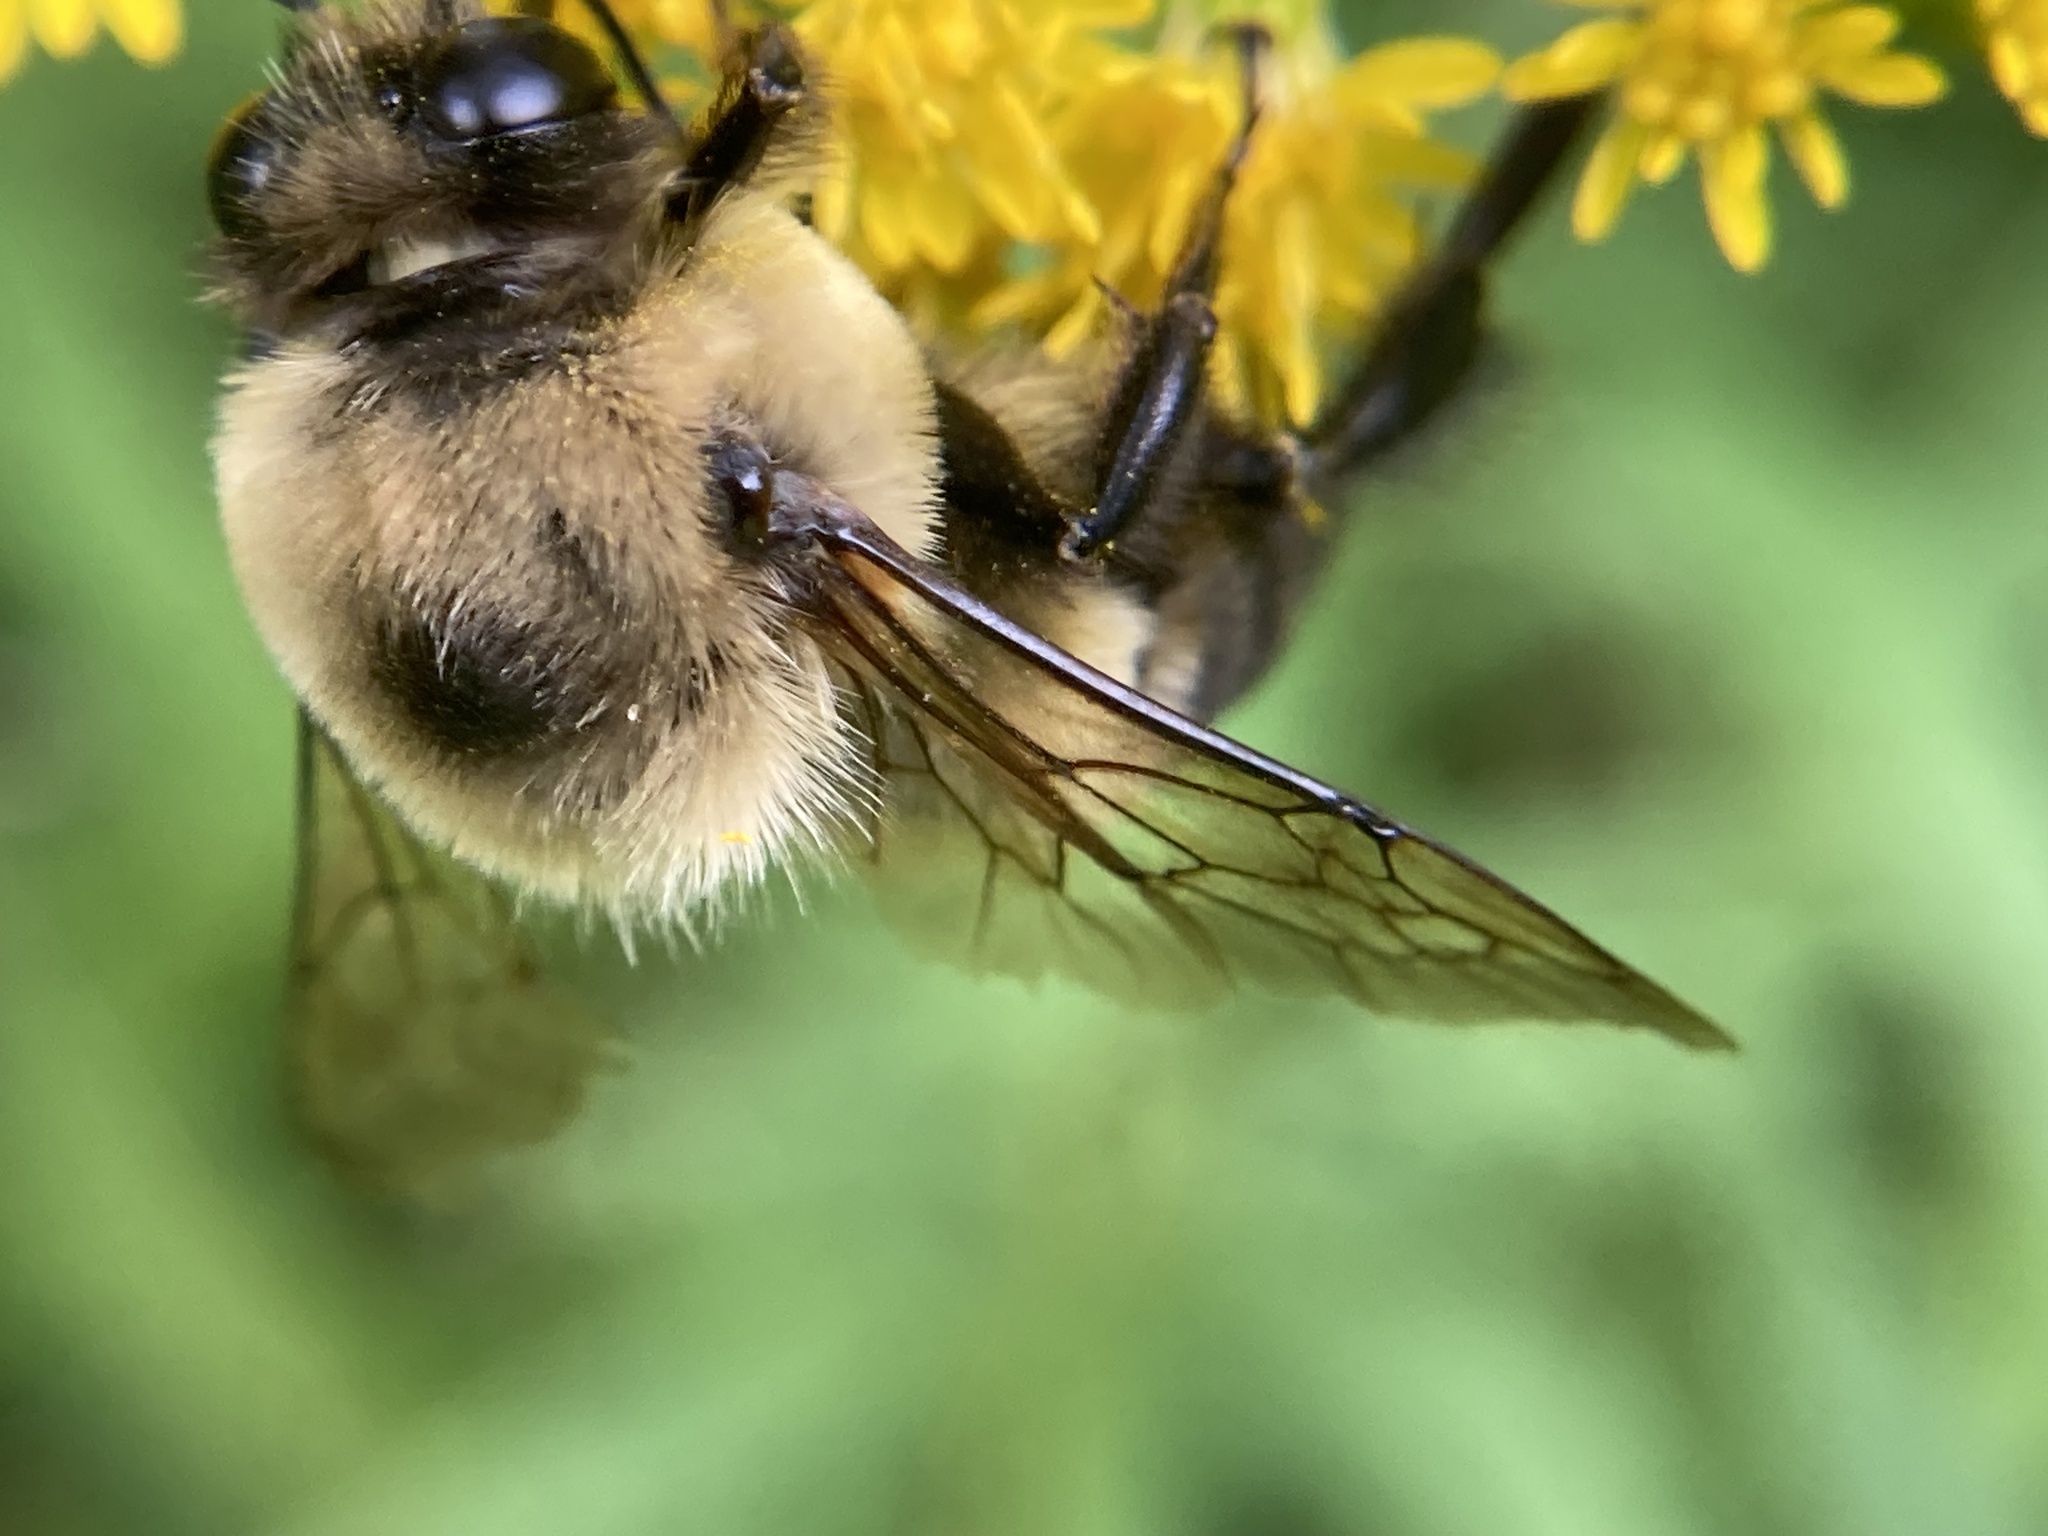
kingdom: Animalia
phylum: Arthropoda
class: Insecta
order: Hymenoptera
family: Apidae
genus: Bombus
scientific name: Bombus griseocollis
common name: Brown-belted bumble bee
